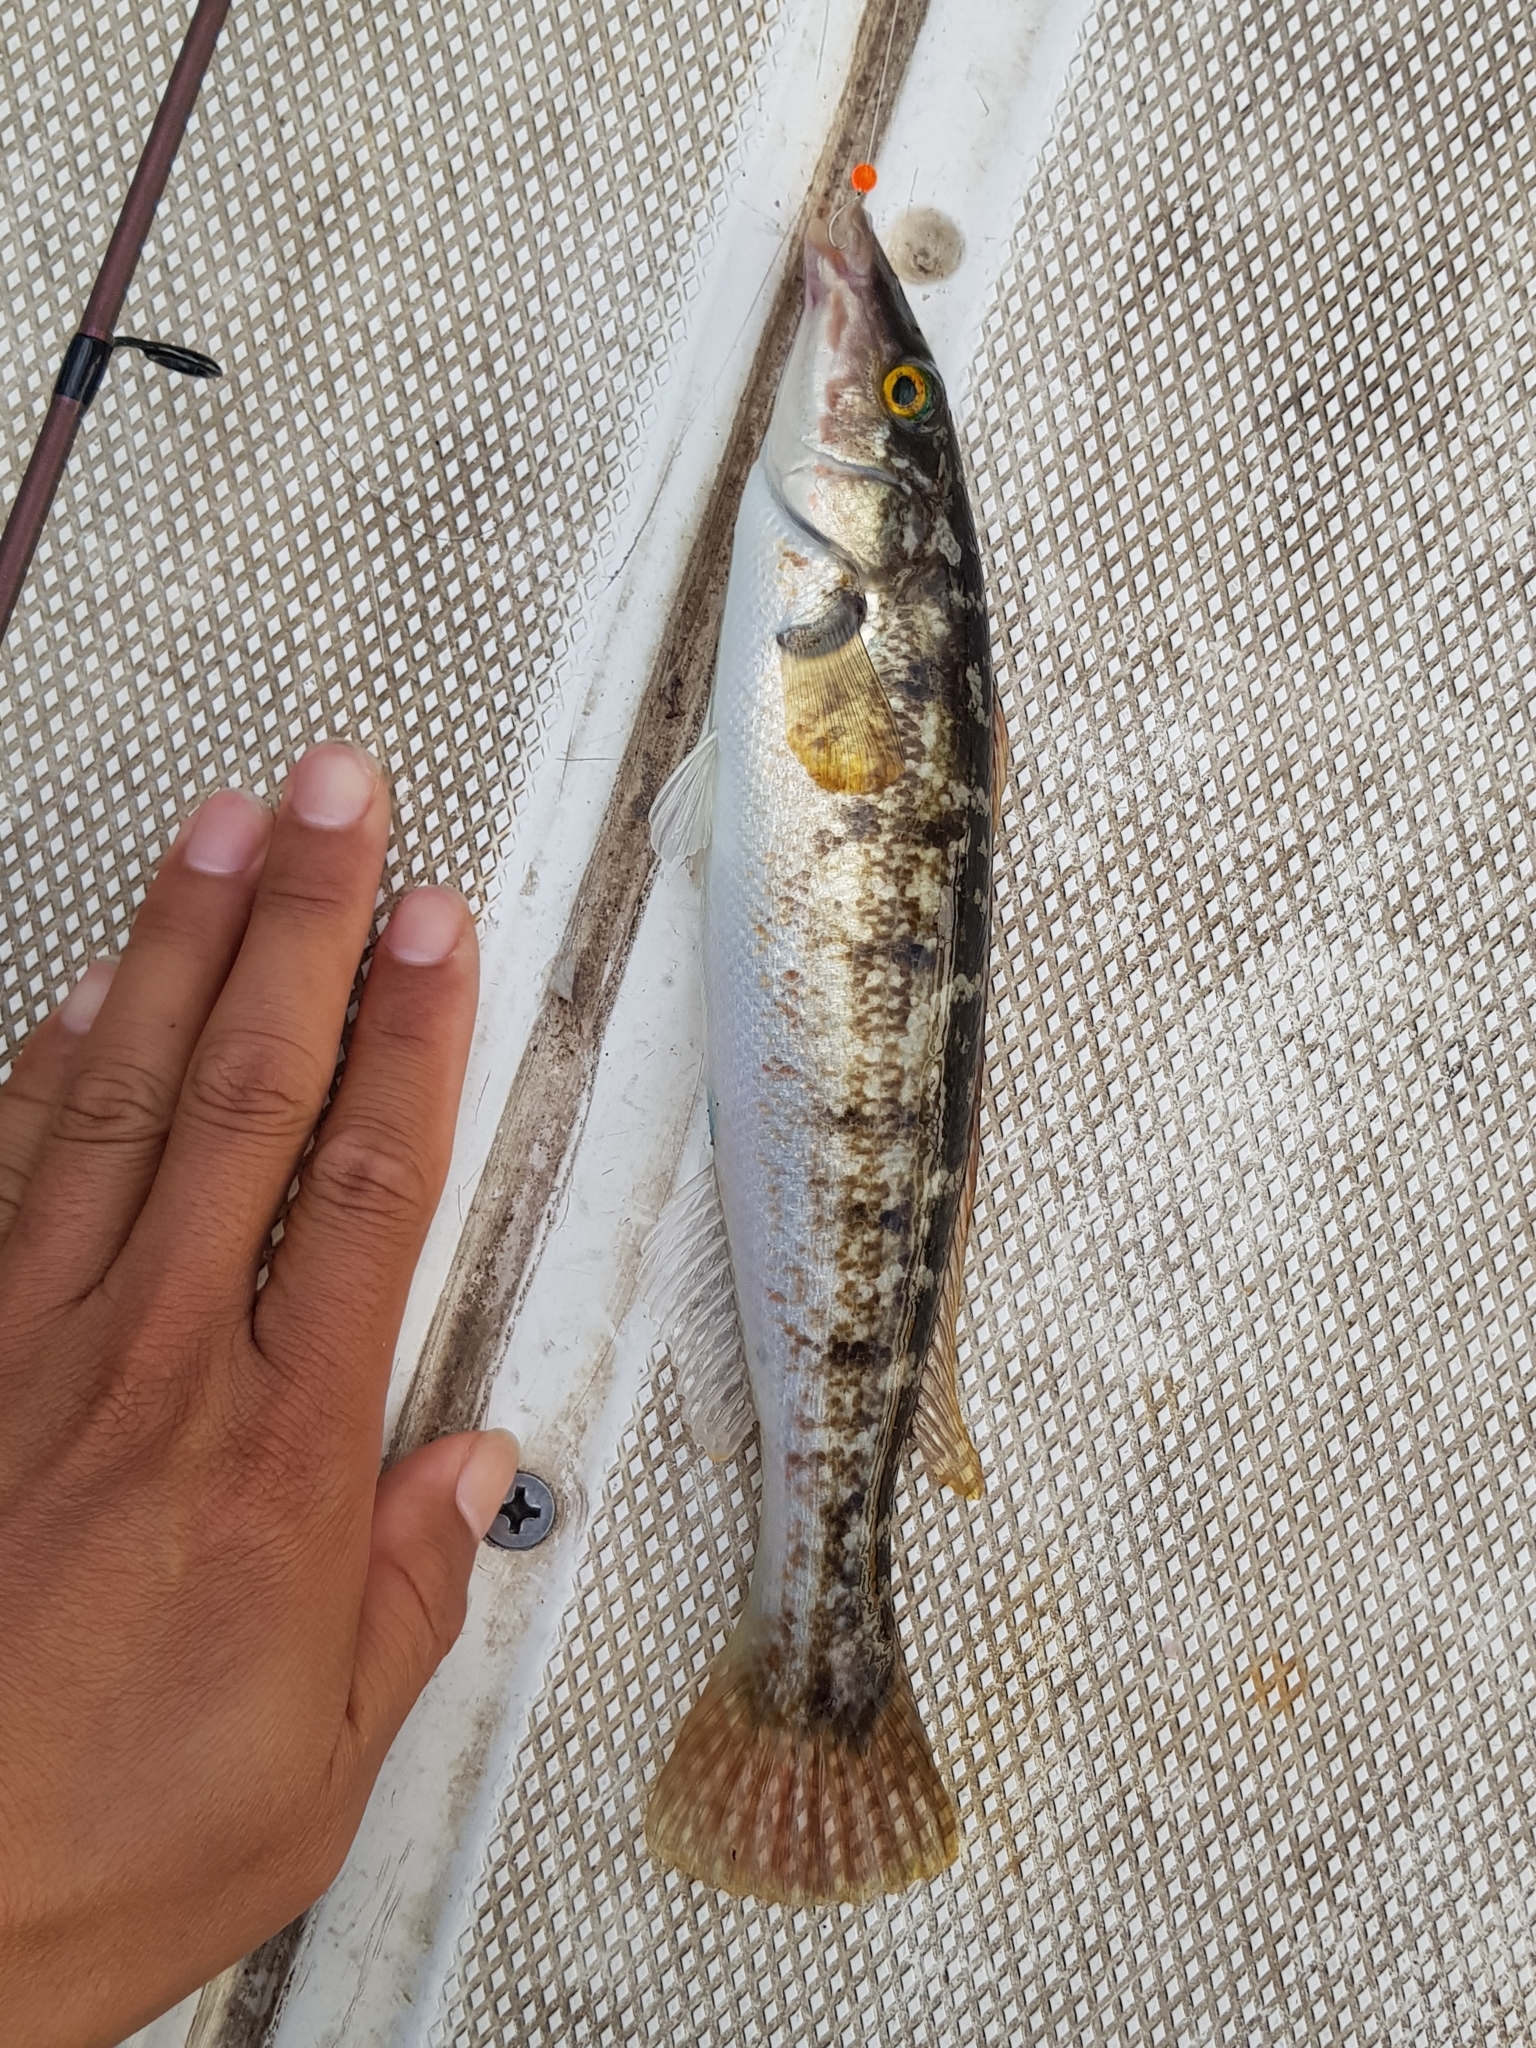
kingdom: Animalia
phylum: Chordata
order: Perciformes
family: Odacidae
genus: Haletta
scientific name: Haletta semifasciata
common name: Blue rock whiting
